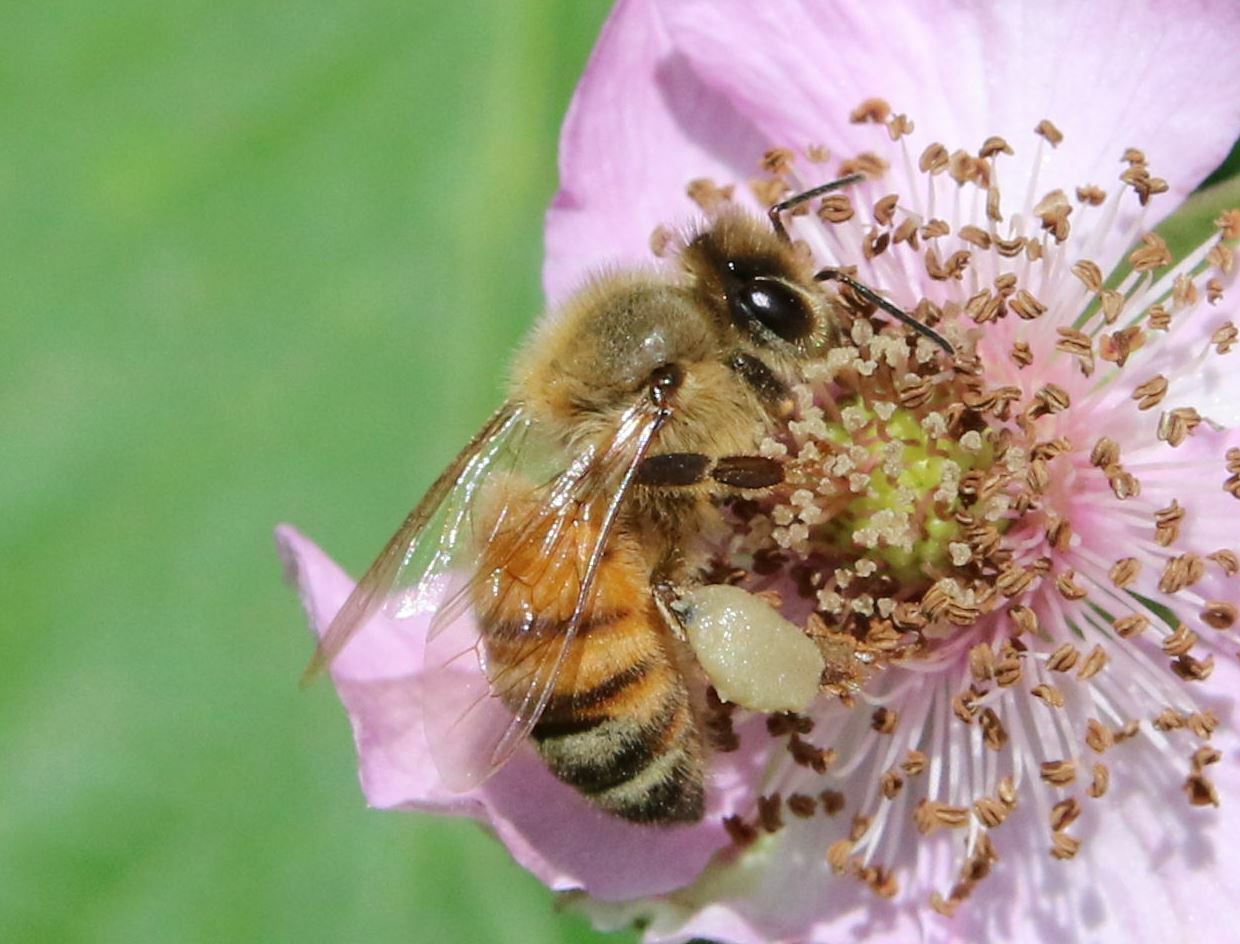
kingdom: Animalia
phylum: Arthropoda
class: Insecta
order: Hymenoptera
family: Apidae
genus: Apis
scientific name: Apis mellifera
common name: Honey bee
